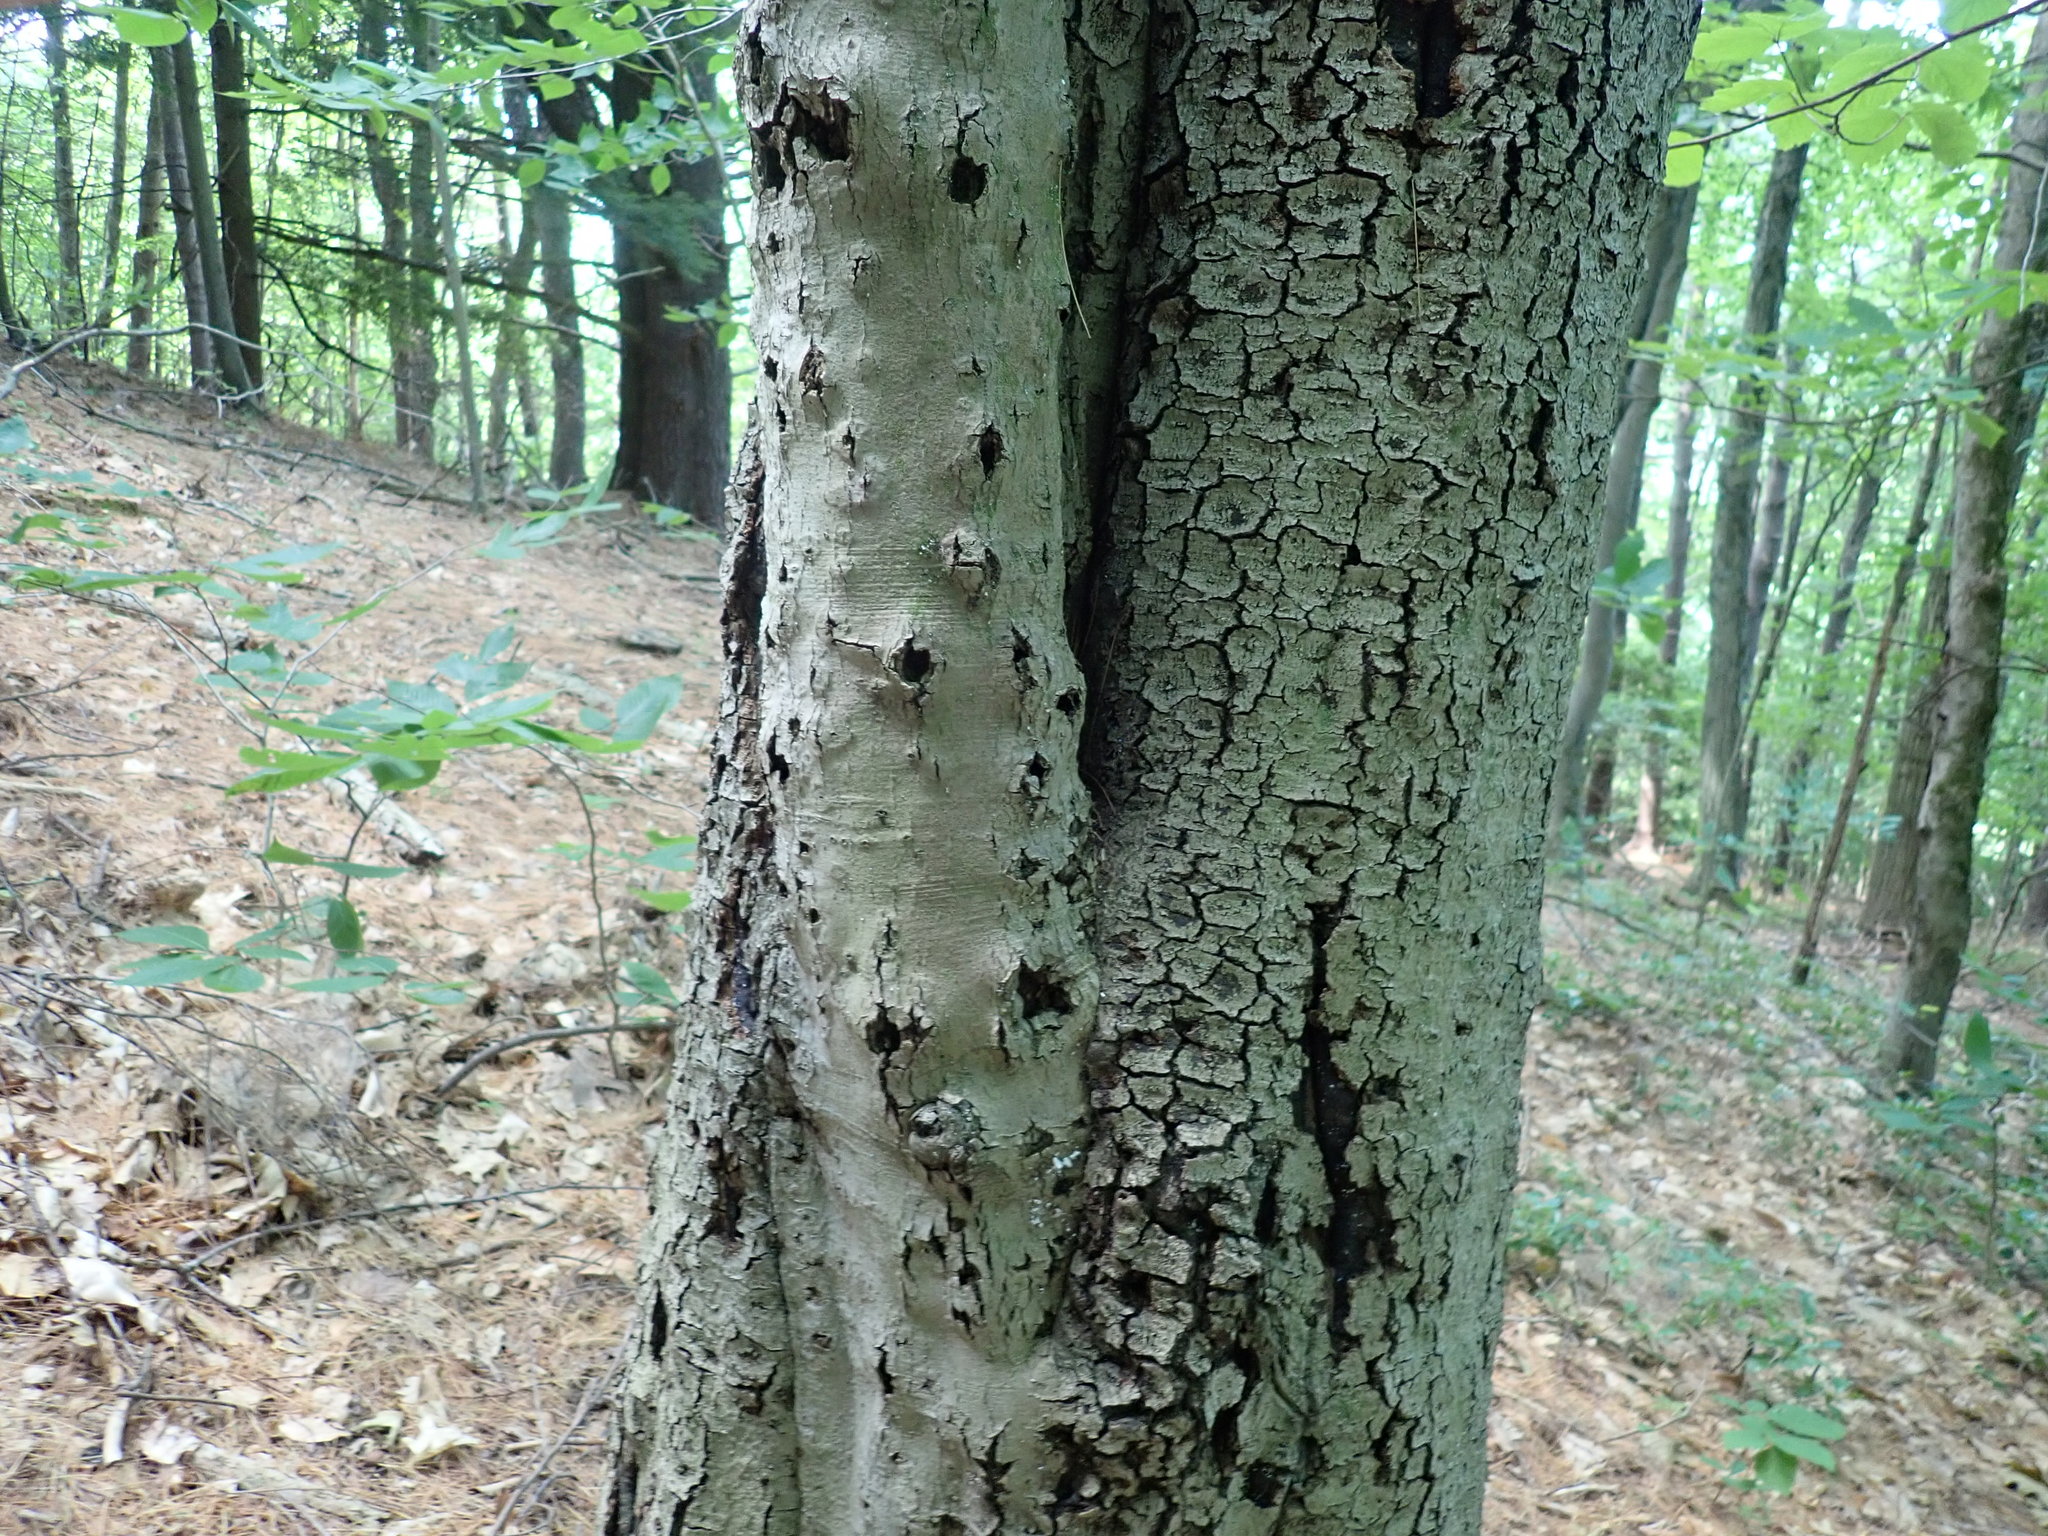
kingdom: Fungi
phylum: Ascomycota
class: Sordariomycetes
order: Hypocreales
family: Nectriaceae
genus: Neonectria
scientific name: Neonectria faginata
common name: Beech bark canker
